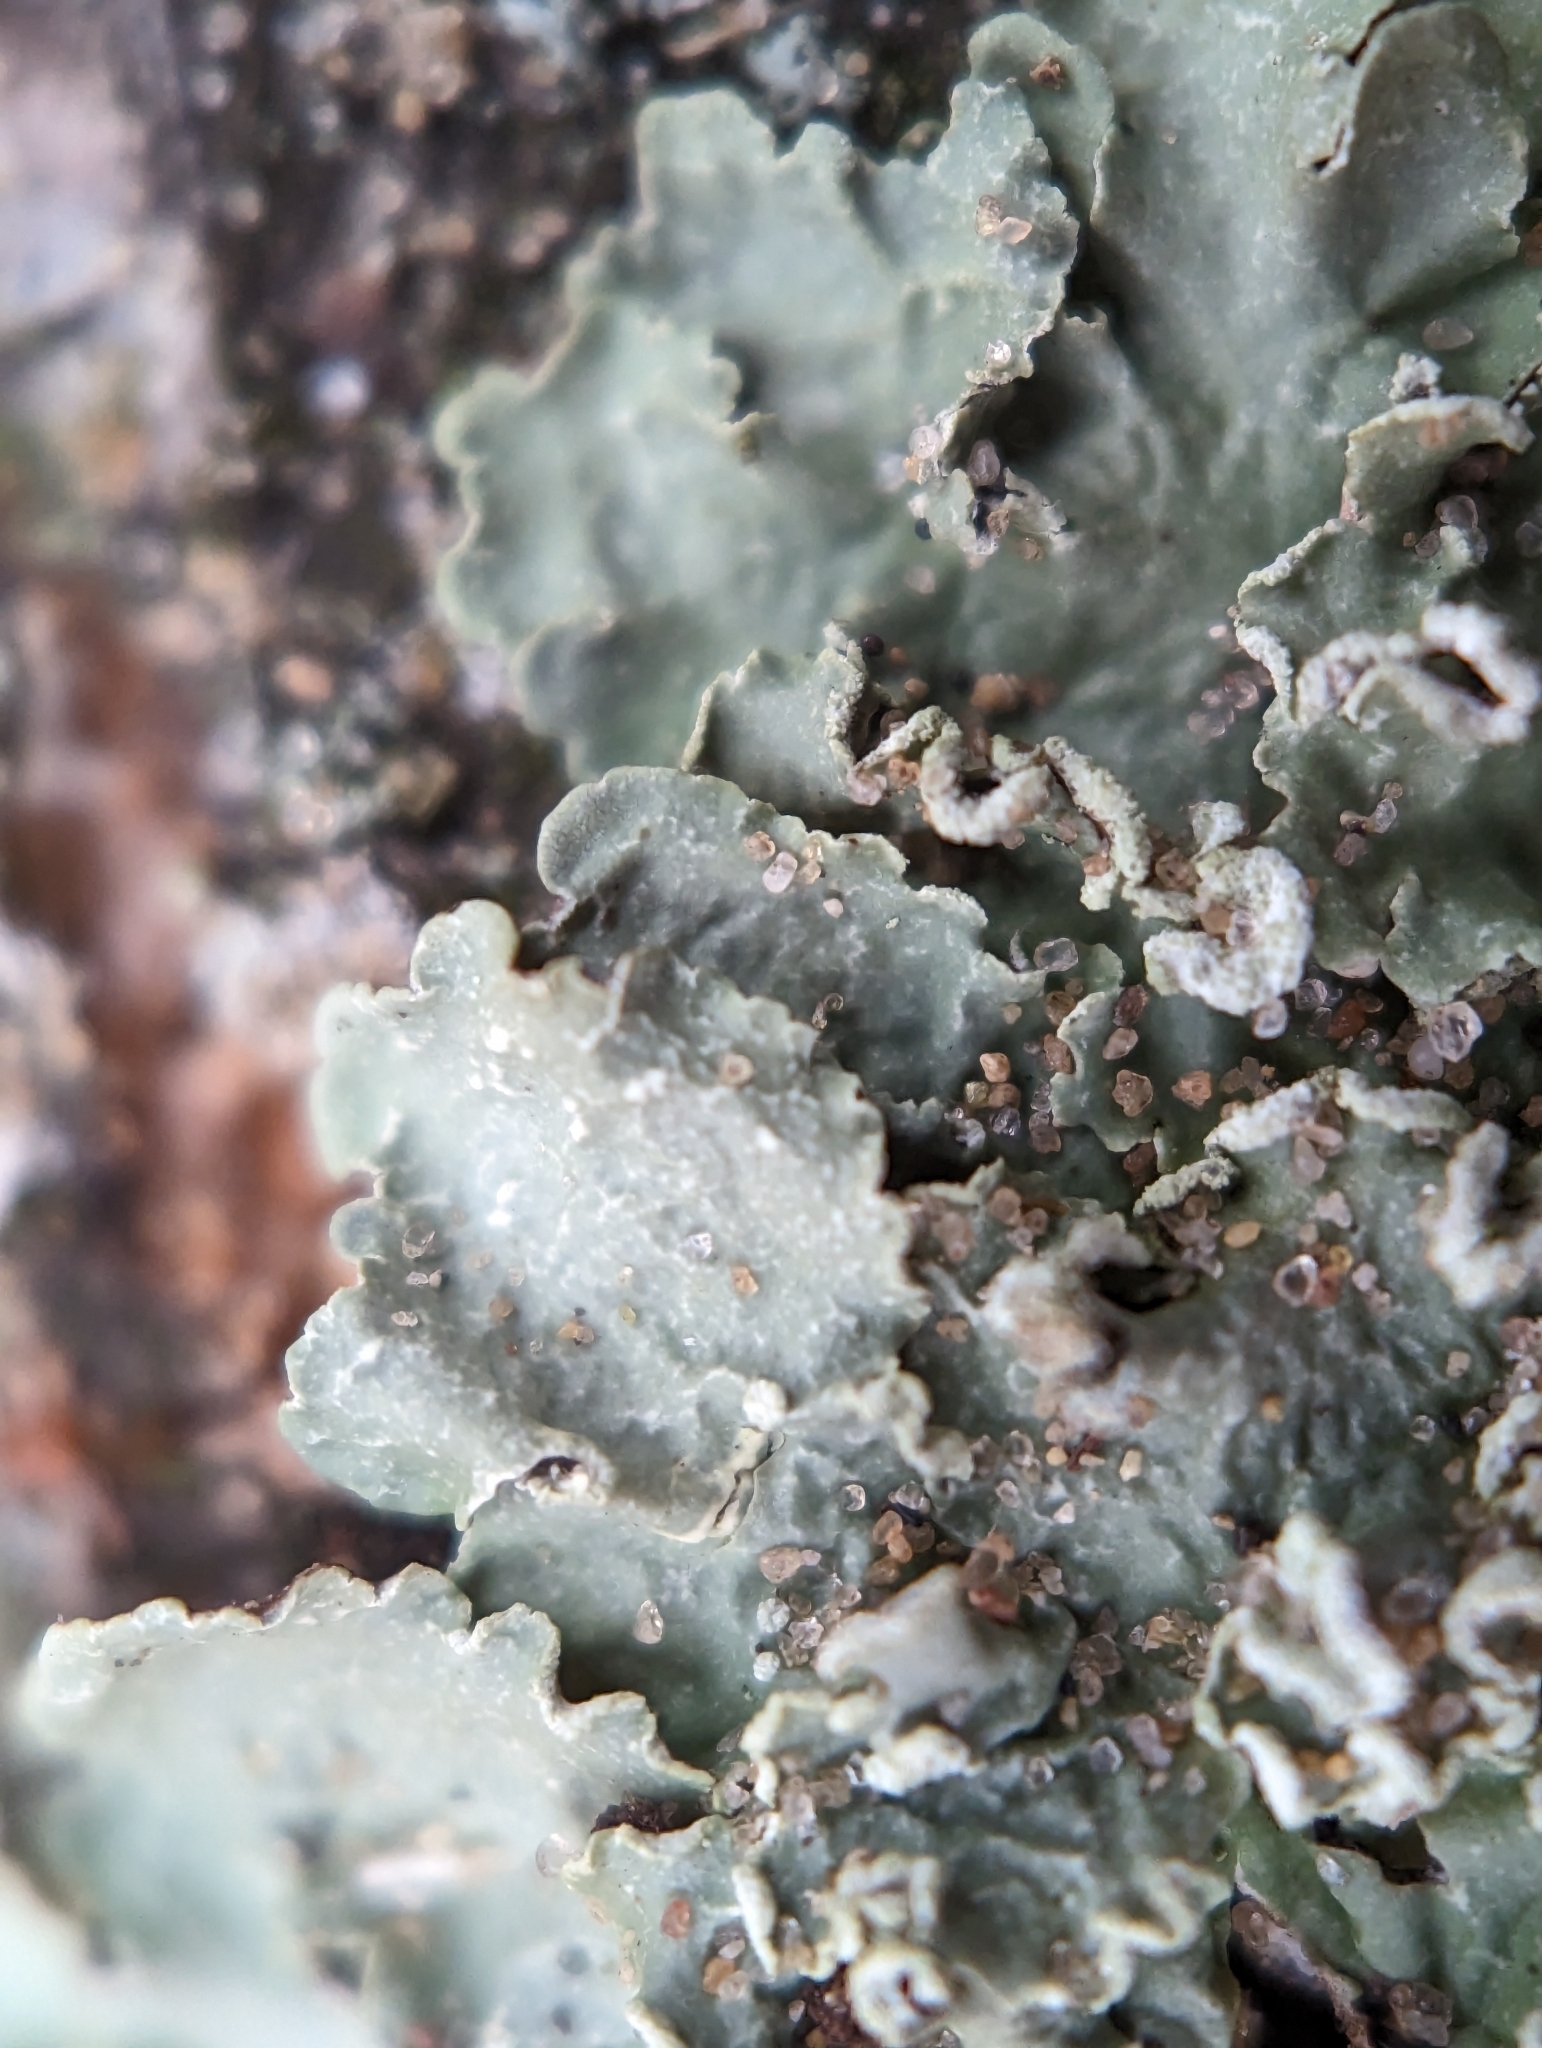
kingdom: Fungi
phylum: Ascomycota
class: Lecanoromycetes
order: Lecanorales
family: Parmeliaceae
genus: Flavopunctelia
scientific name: Flavopunctelia soredica
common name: Powder-edged speckled greenshield
